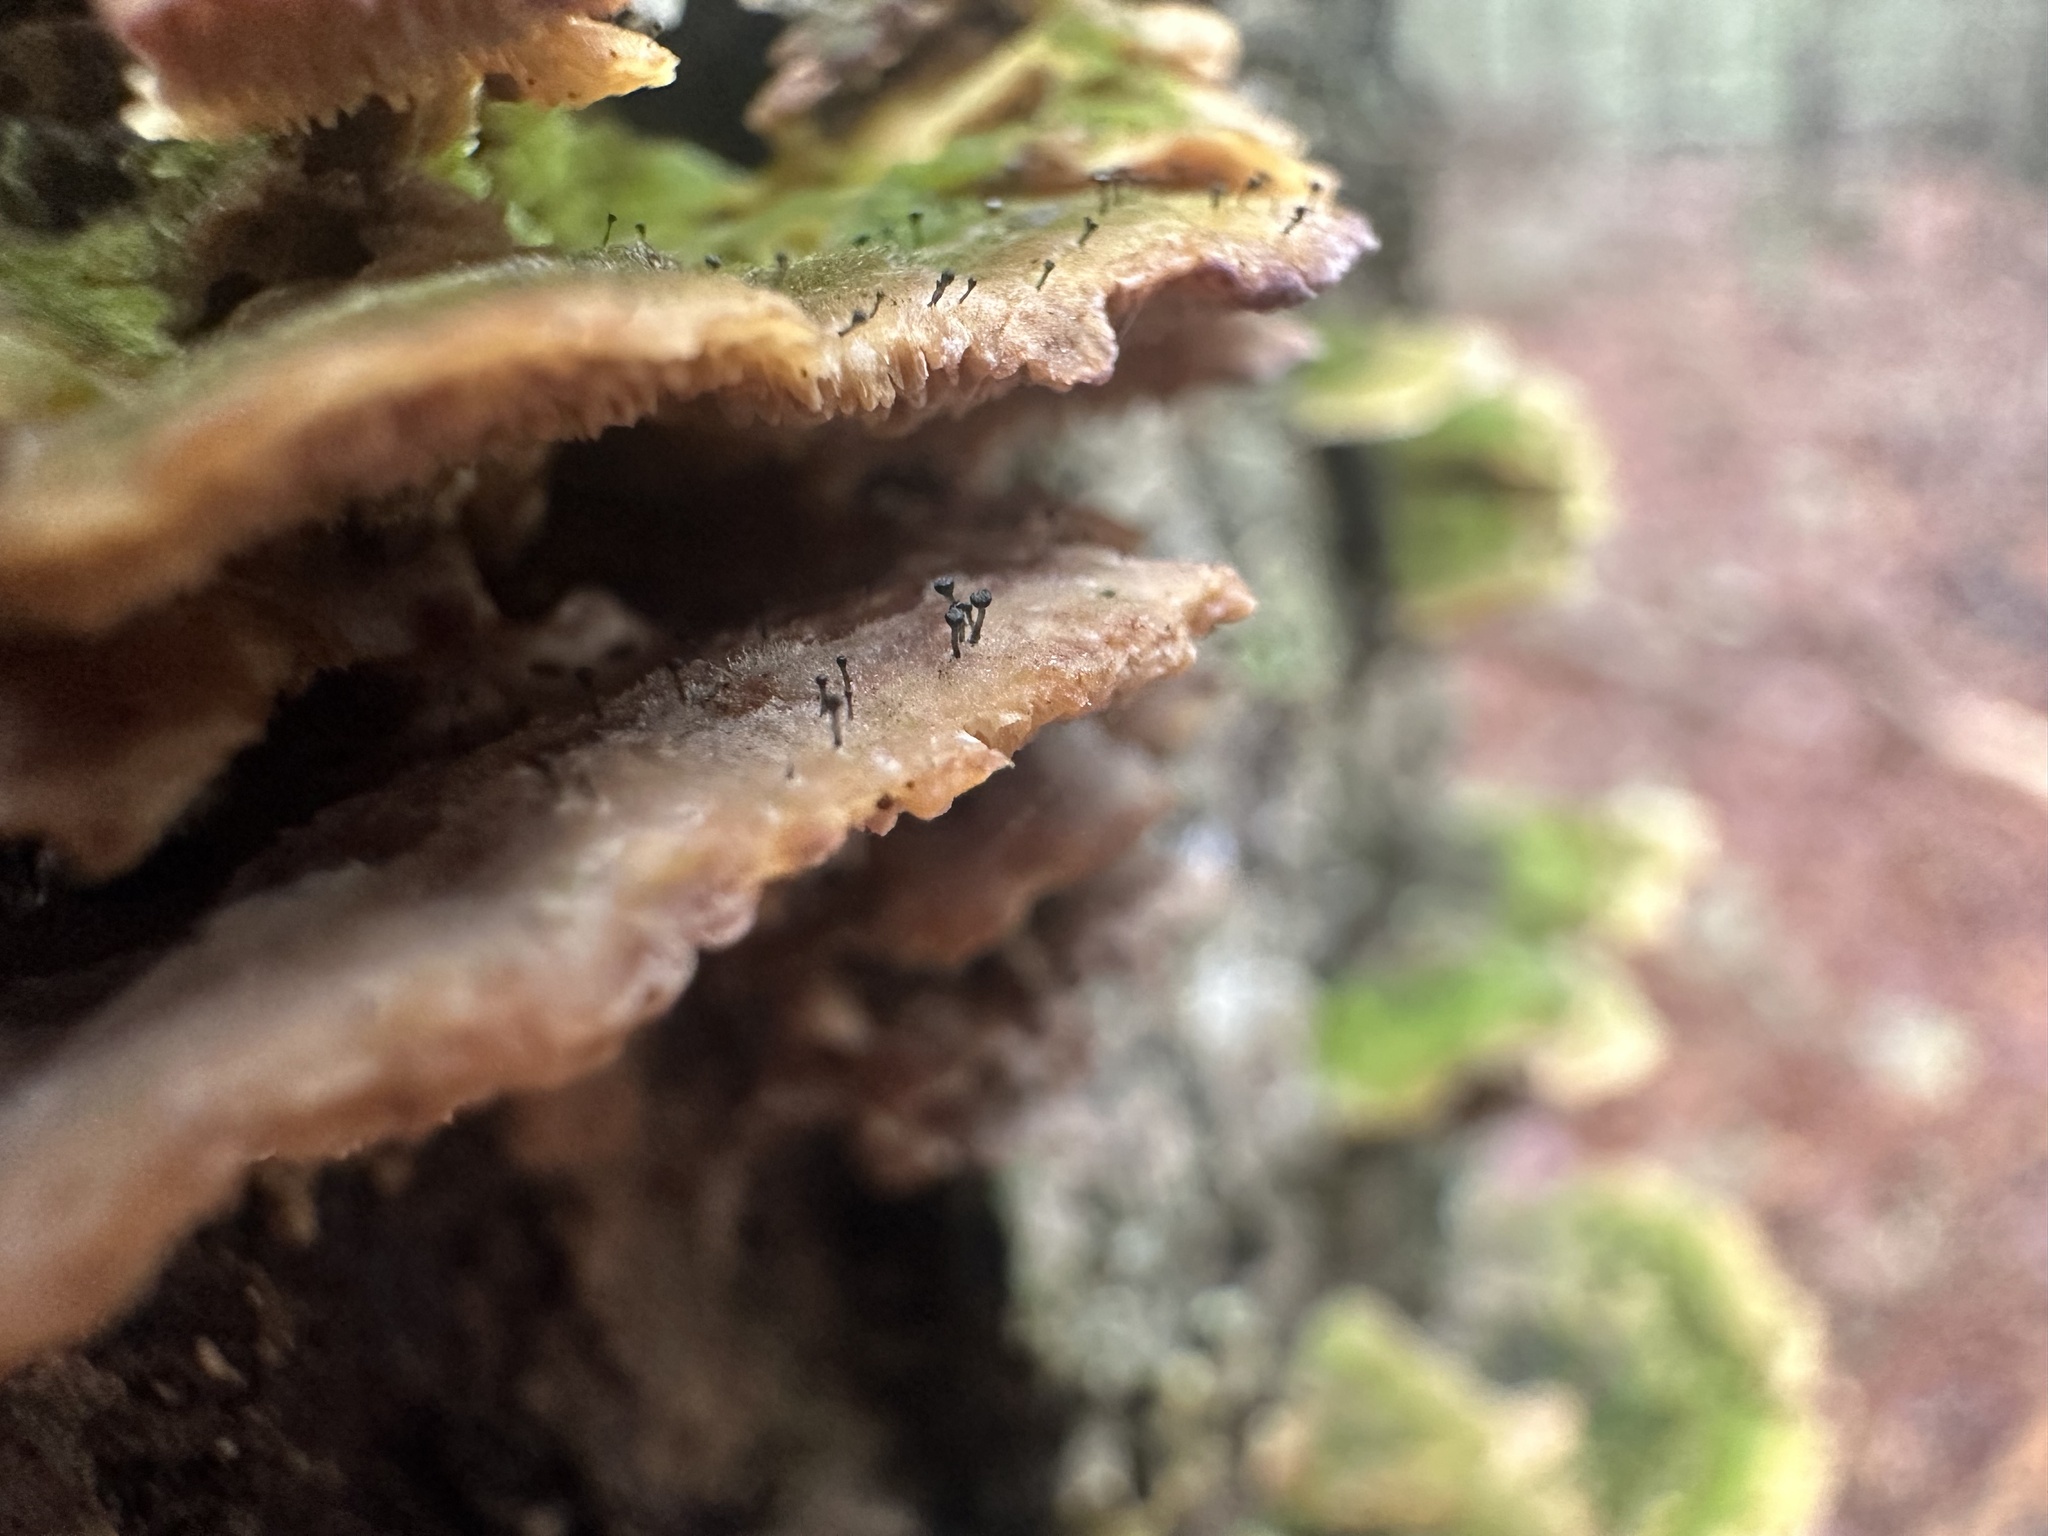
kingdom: Fungi
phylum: Ascomycota
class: Eurotiomycetes
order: Mycocaliciales
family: Mycocaliciaceae
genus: Phaeocalicium
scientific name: Phaeocalicium polyporaeum
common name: Fairy pins
